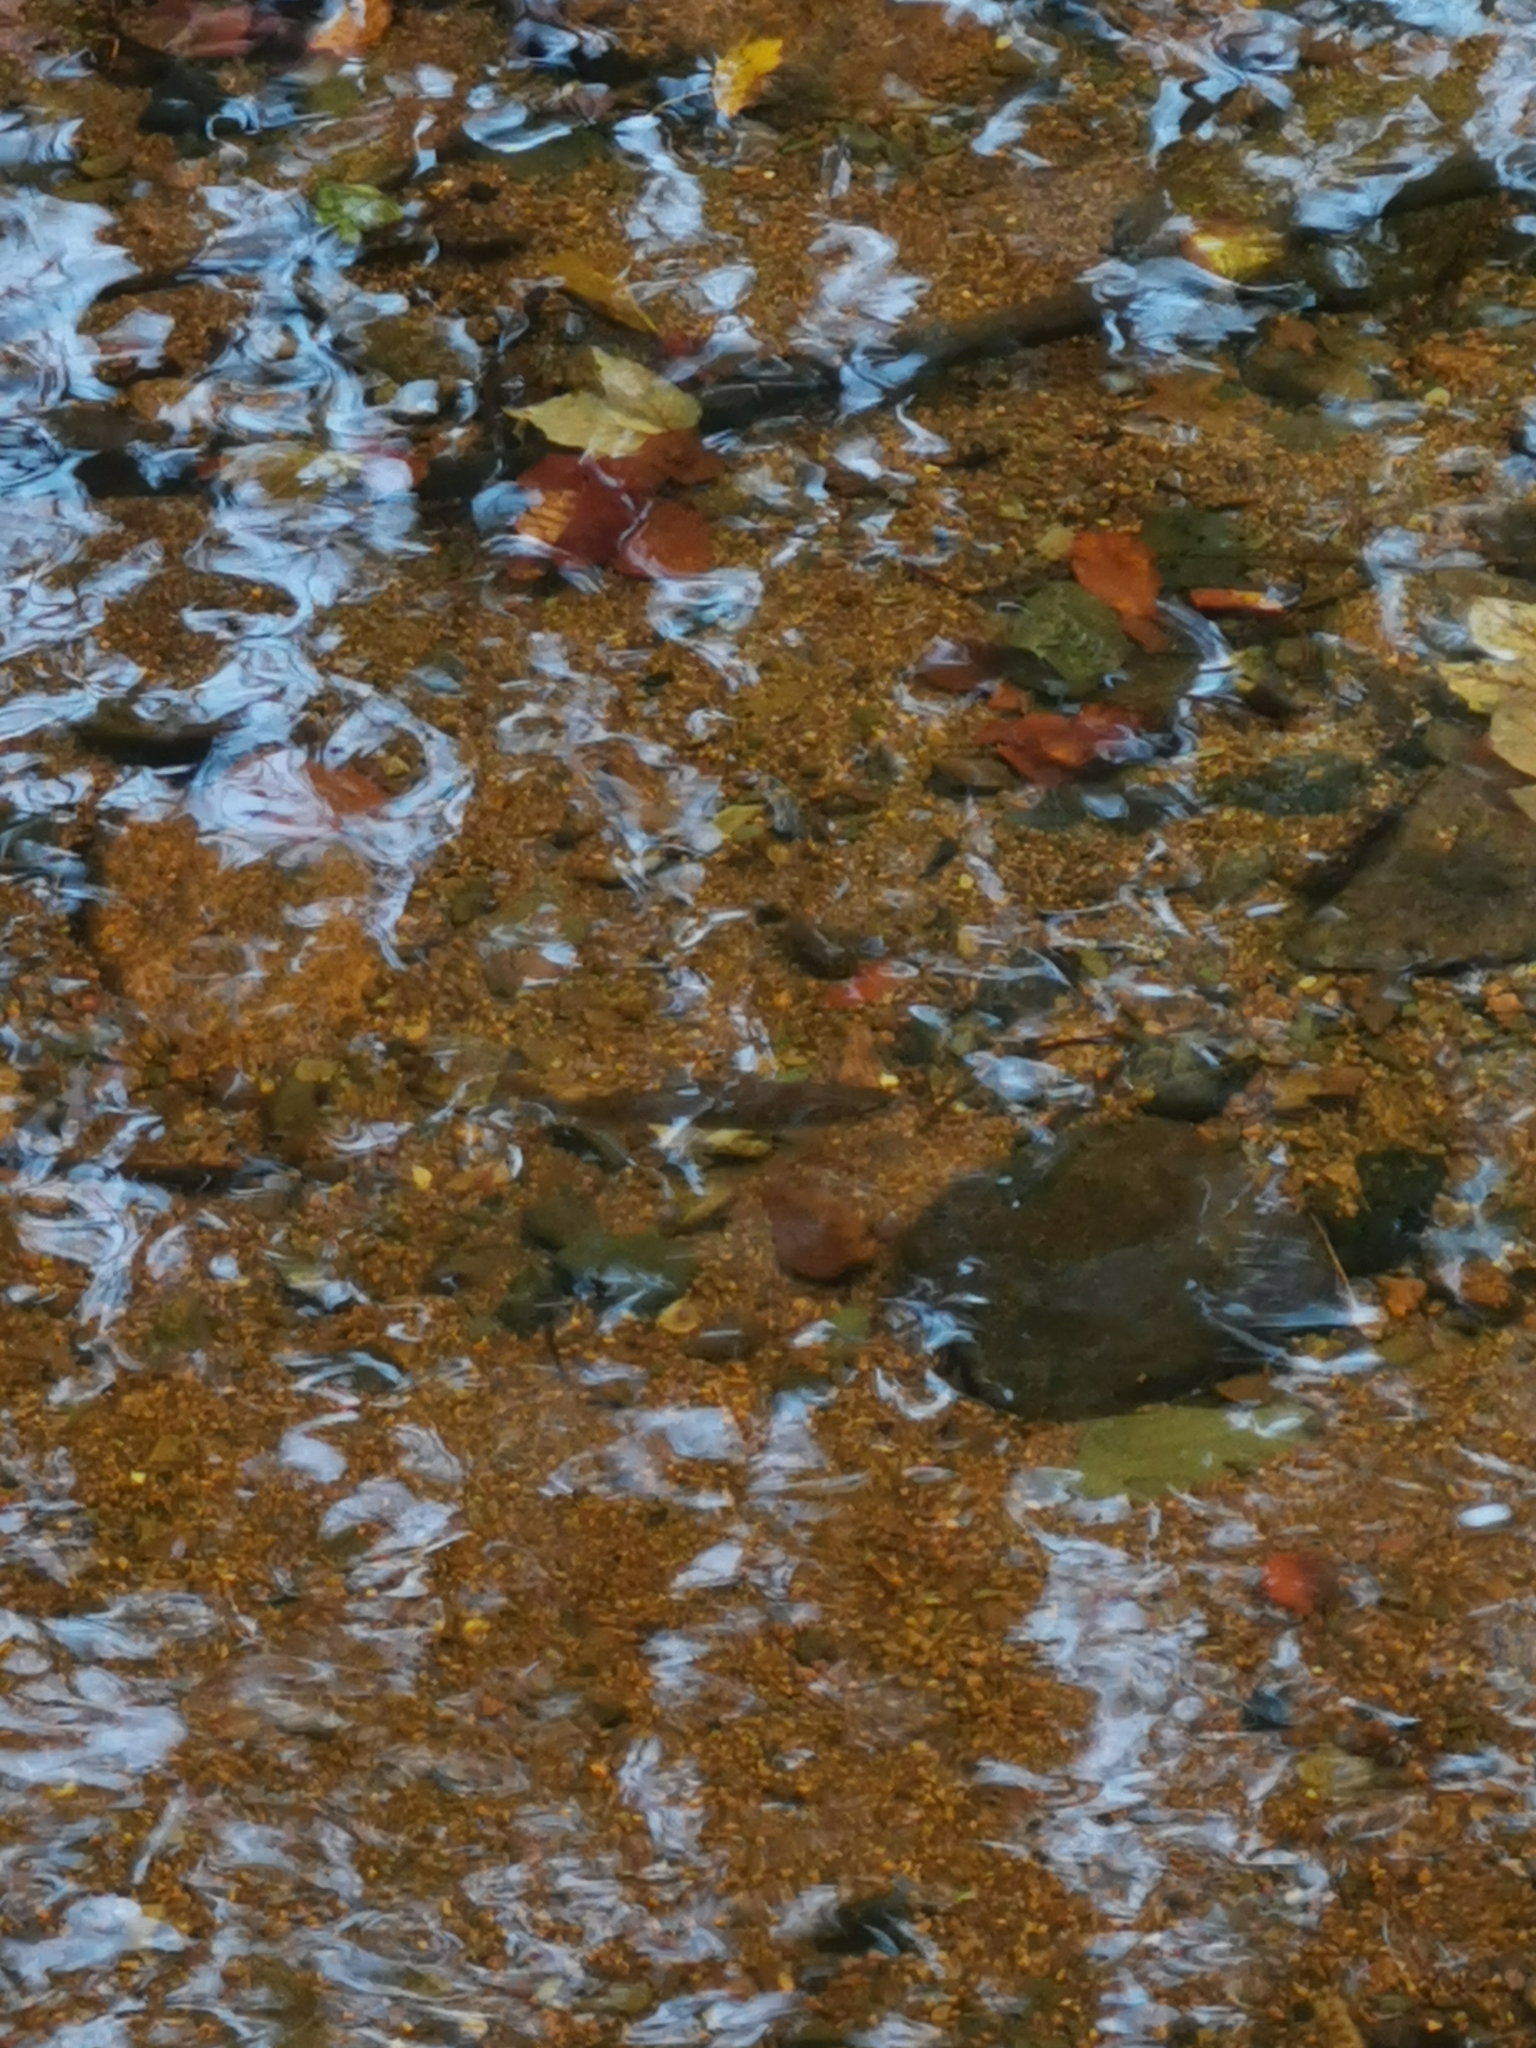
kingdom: Animalia
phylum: Chordata
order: Salmoniformes
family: Salmonidae
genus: Salmo
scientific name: Salmo trutta
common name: Brown trout
